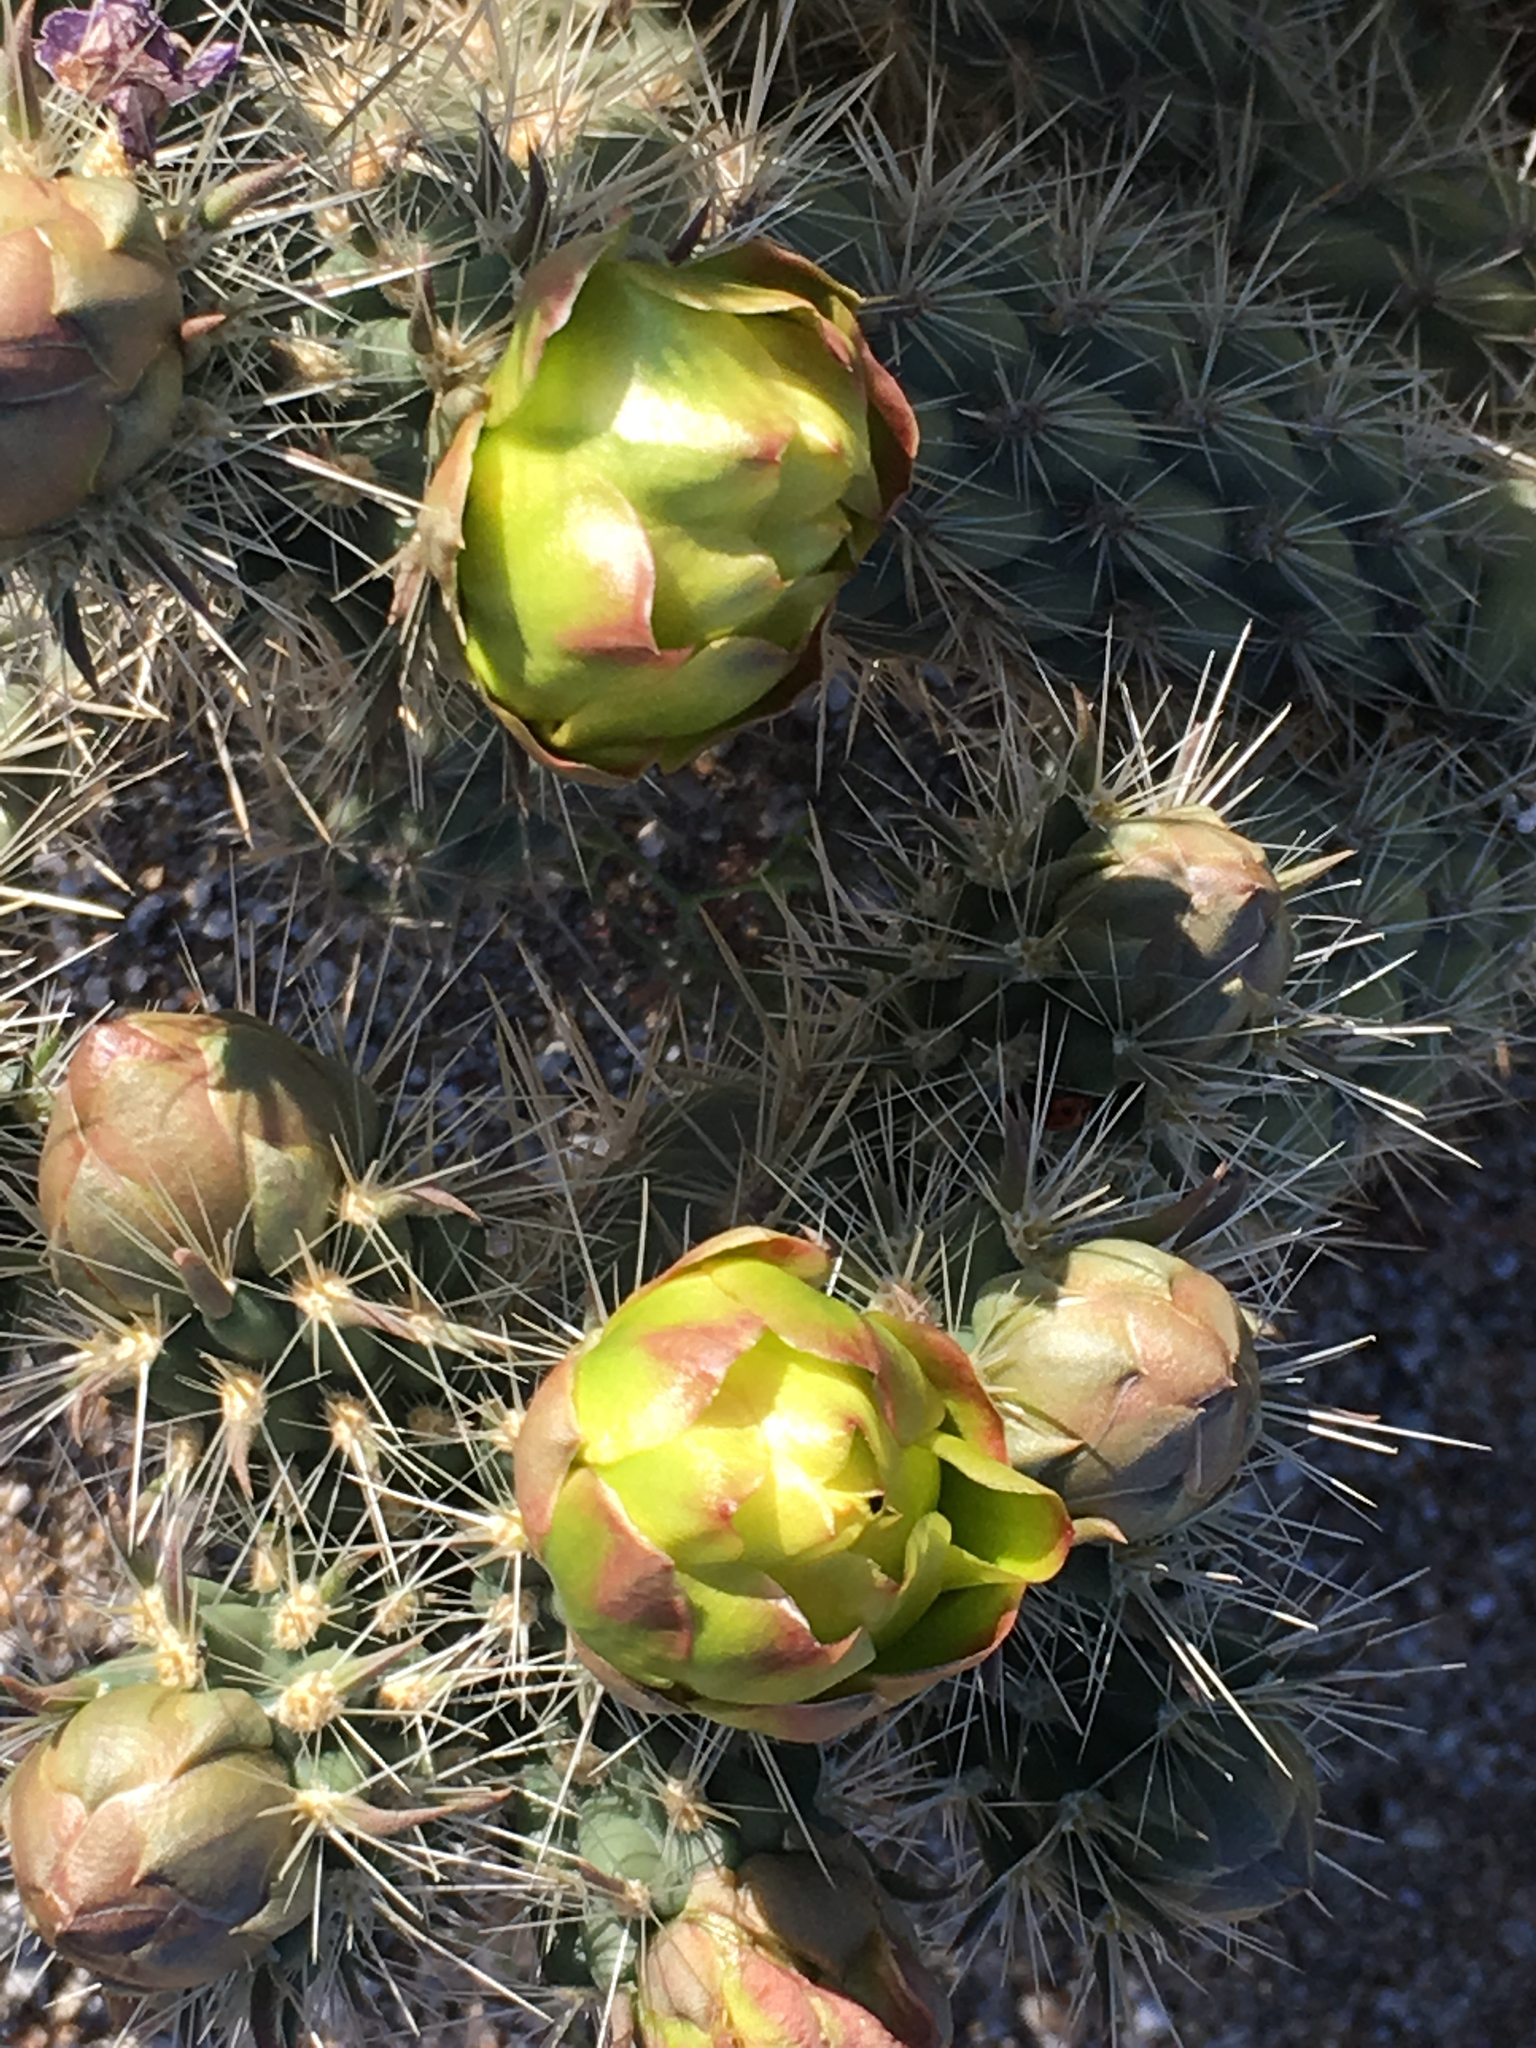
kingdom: Plantae
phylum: Tracheophyta
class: Magnoliopsida
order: Caryophyllales
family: Cactaceae
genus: Cylindropuntia
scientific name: Cylindropuntia ganderi
